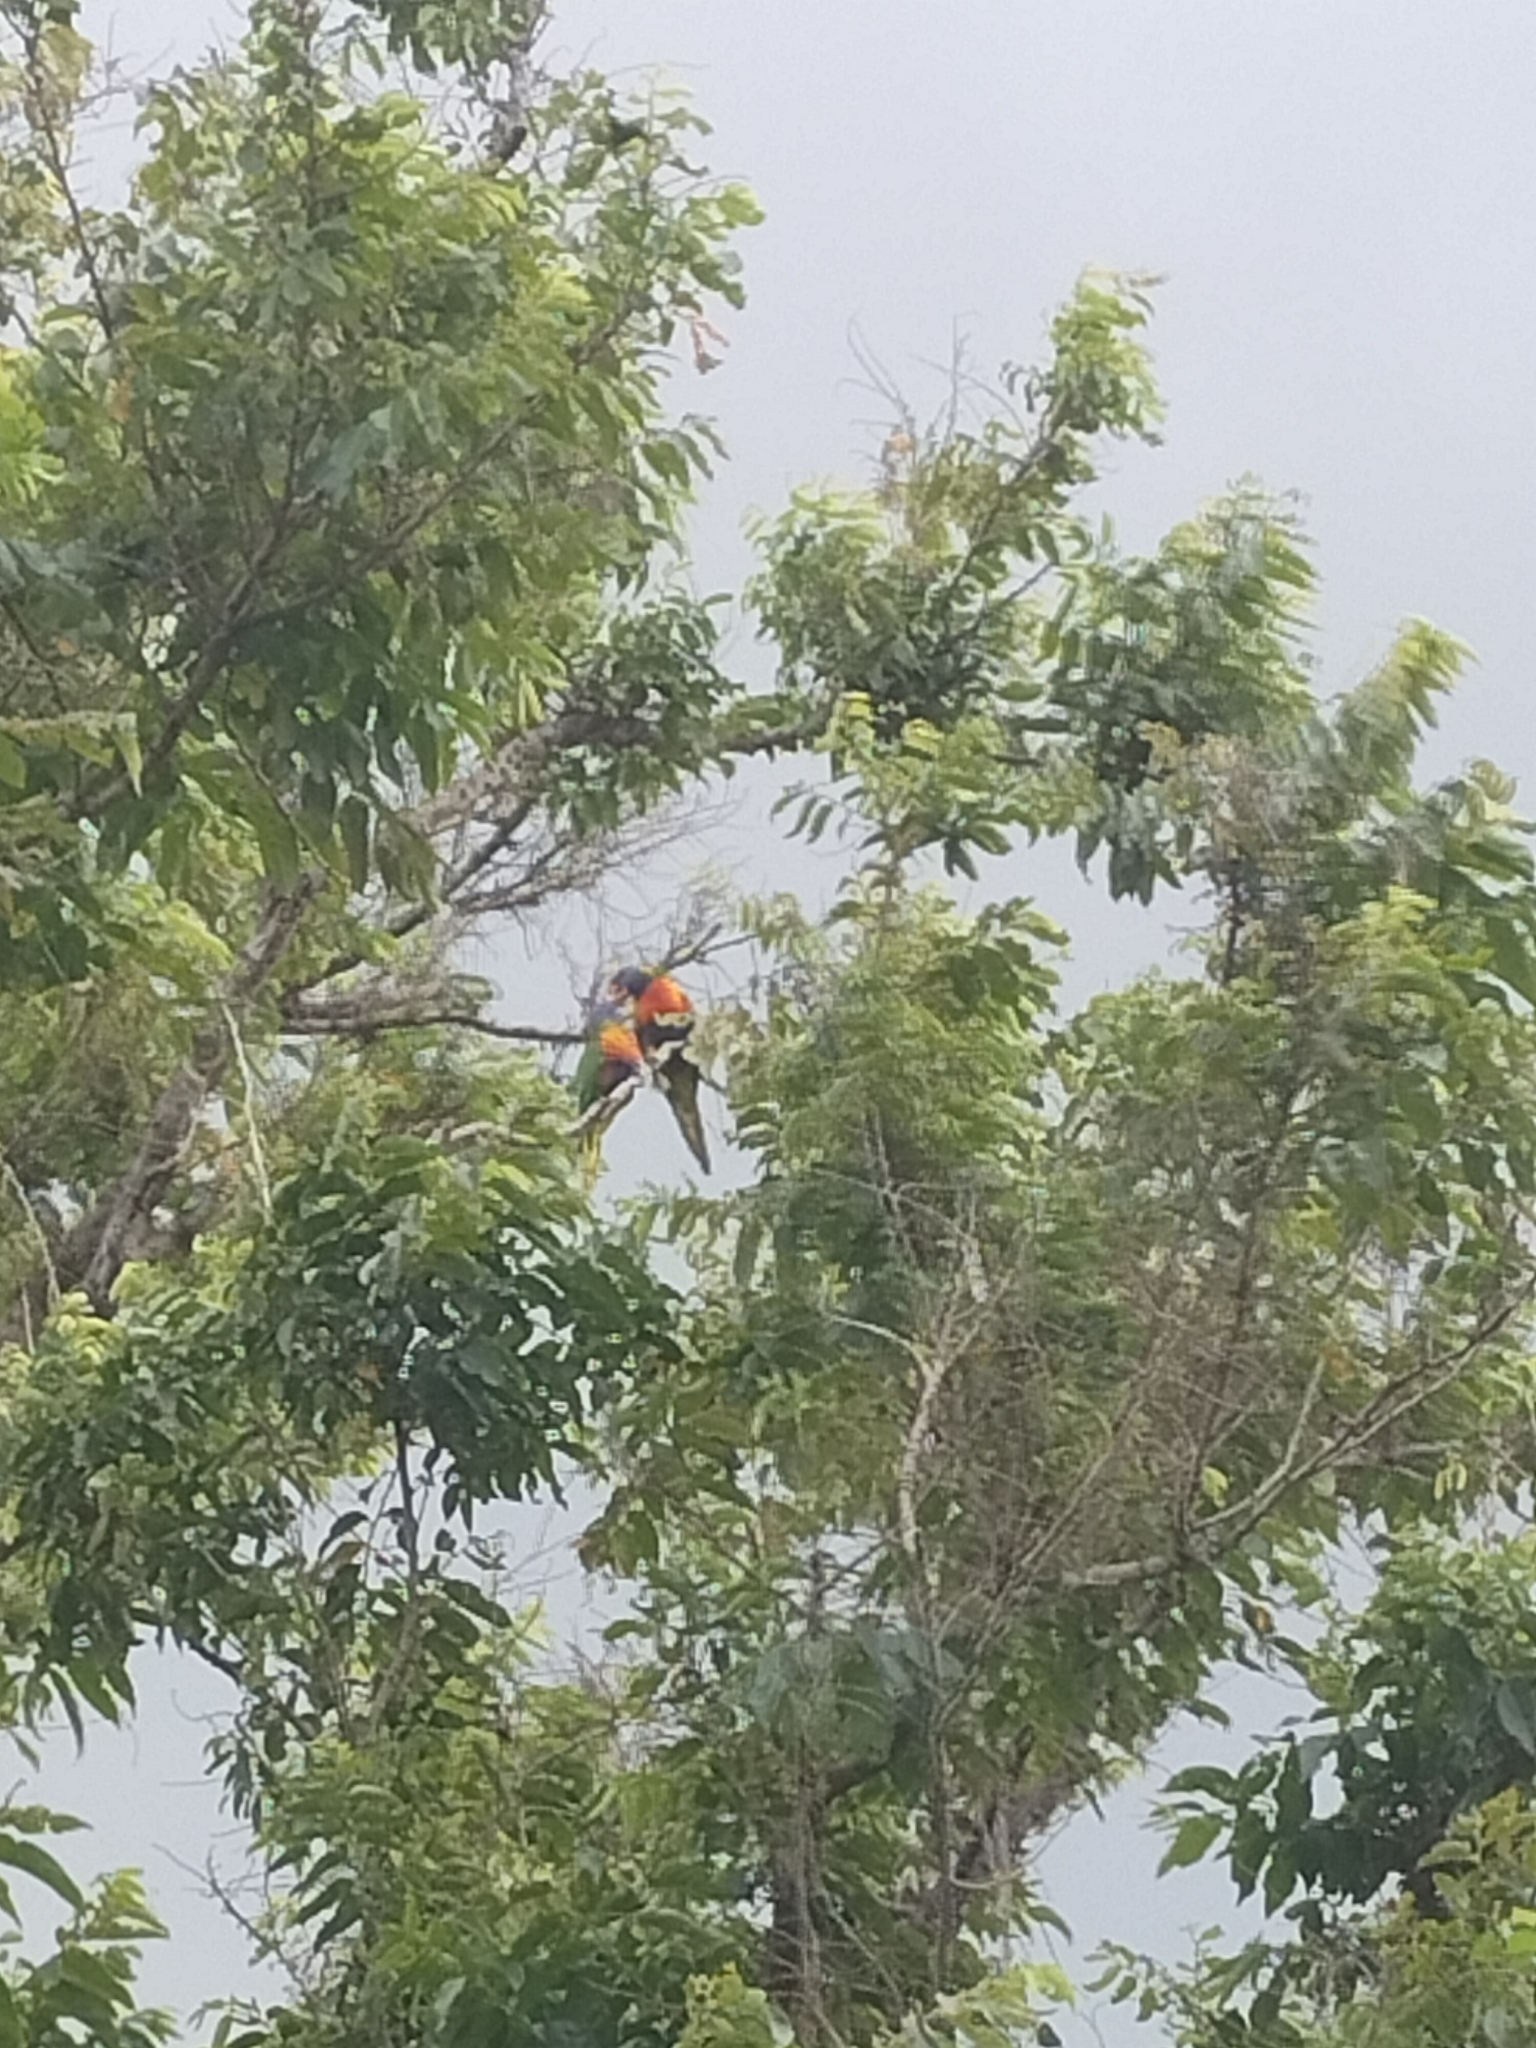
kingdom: Animalia
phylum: Chordata
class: Aves
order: Psittaciformes
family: Psittacidae
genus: Trichoglossus
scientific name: Trichoglossus haematodus
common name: Coconut lorikeet
